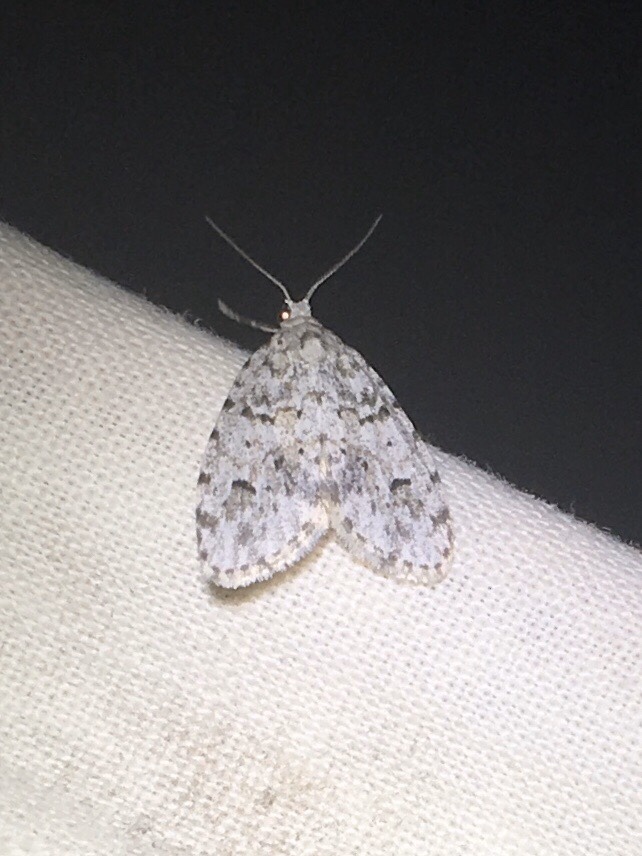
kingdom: Animalia
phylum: Arthropoda
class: Insecta
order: Lepidoptera
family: Erebidae
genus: Clemensia
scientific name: Clemensia albata
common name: Little white lichen moth
